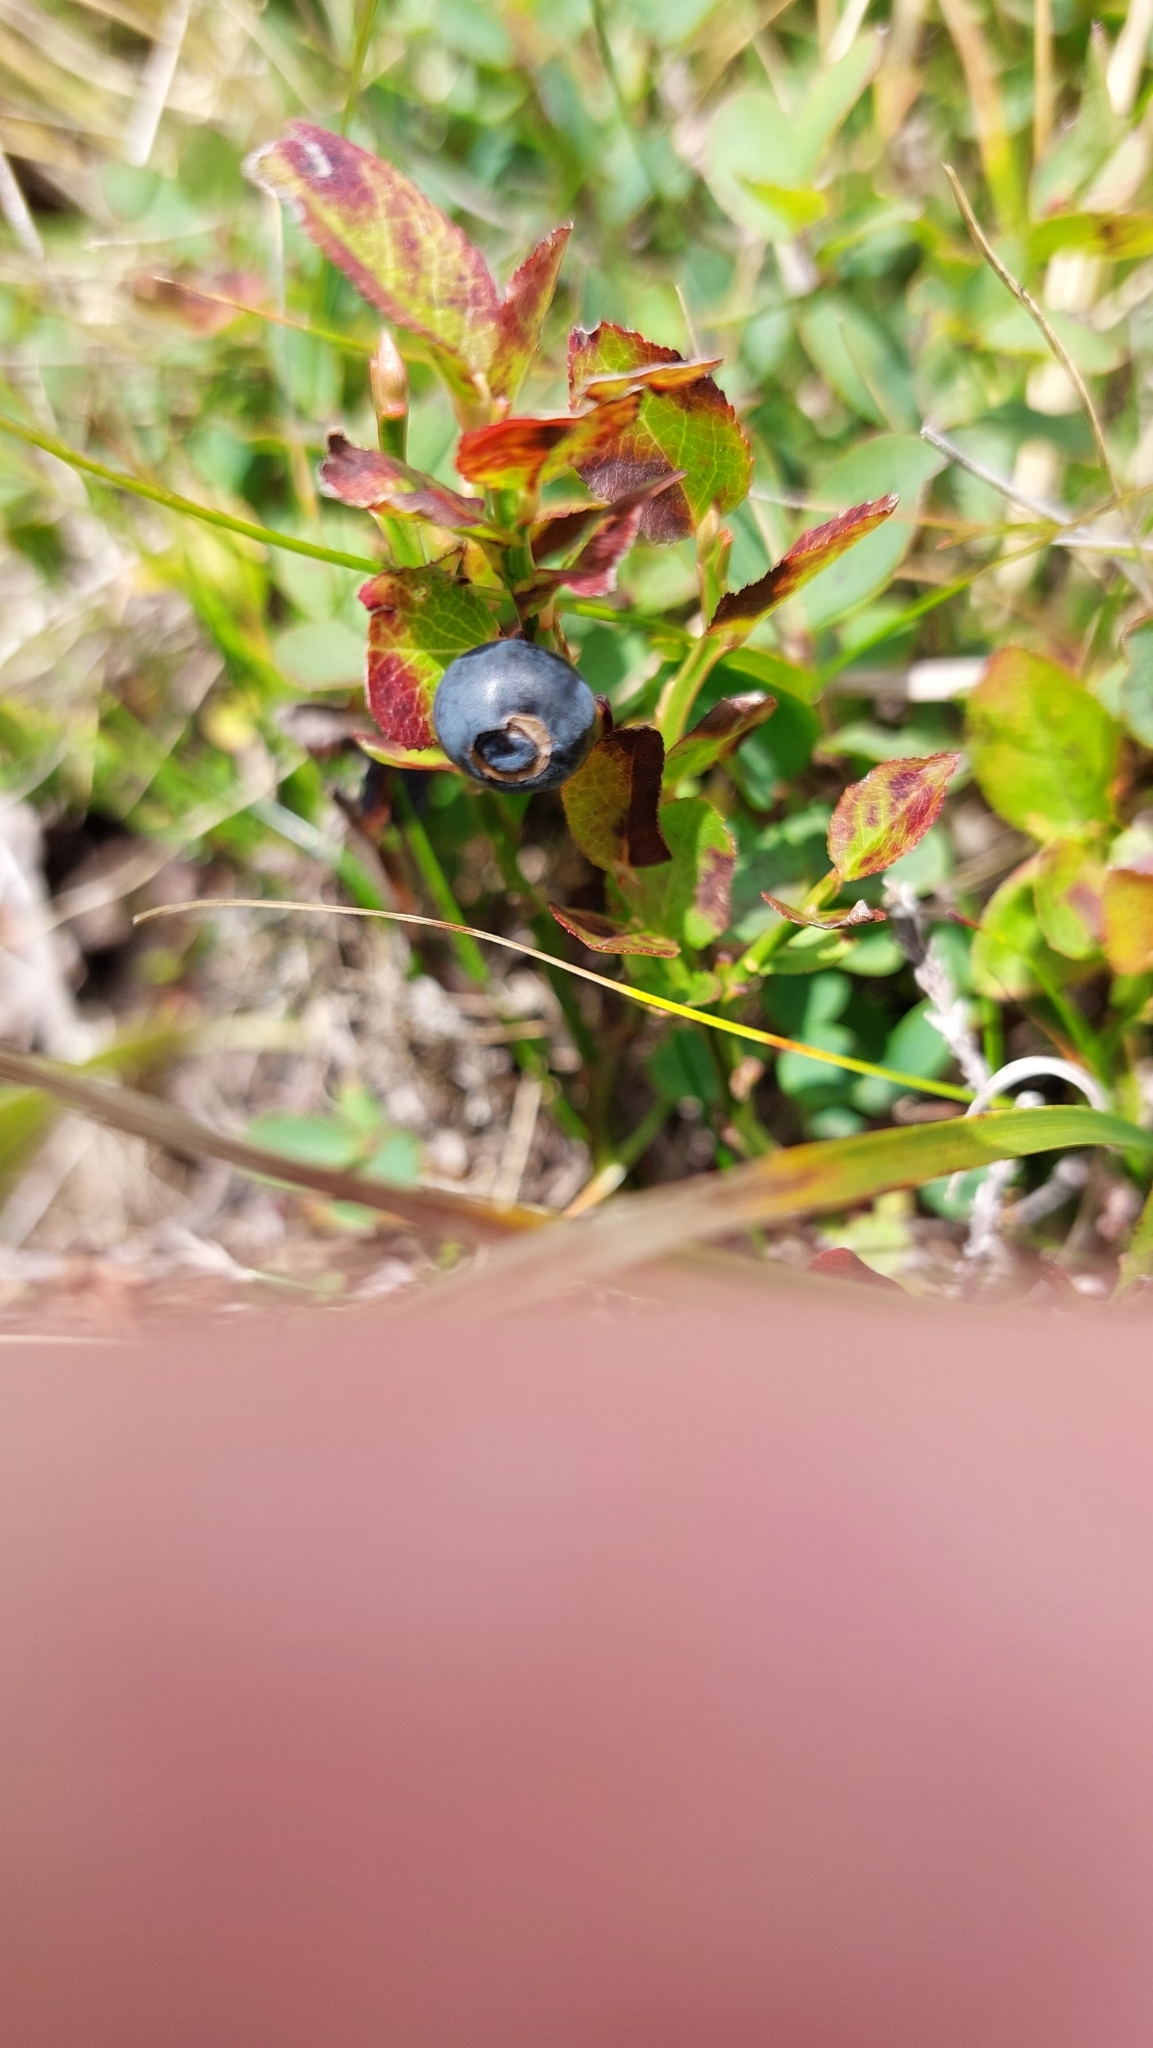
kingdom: Plantae
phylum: Tracheophyta
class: Magnoliopsida
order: Ericales
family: Ericaceae
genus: Vaccinium
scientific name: Vaccinium myrtillus
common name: Bilberry
